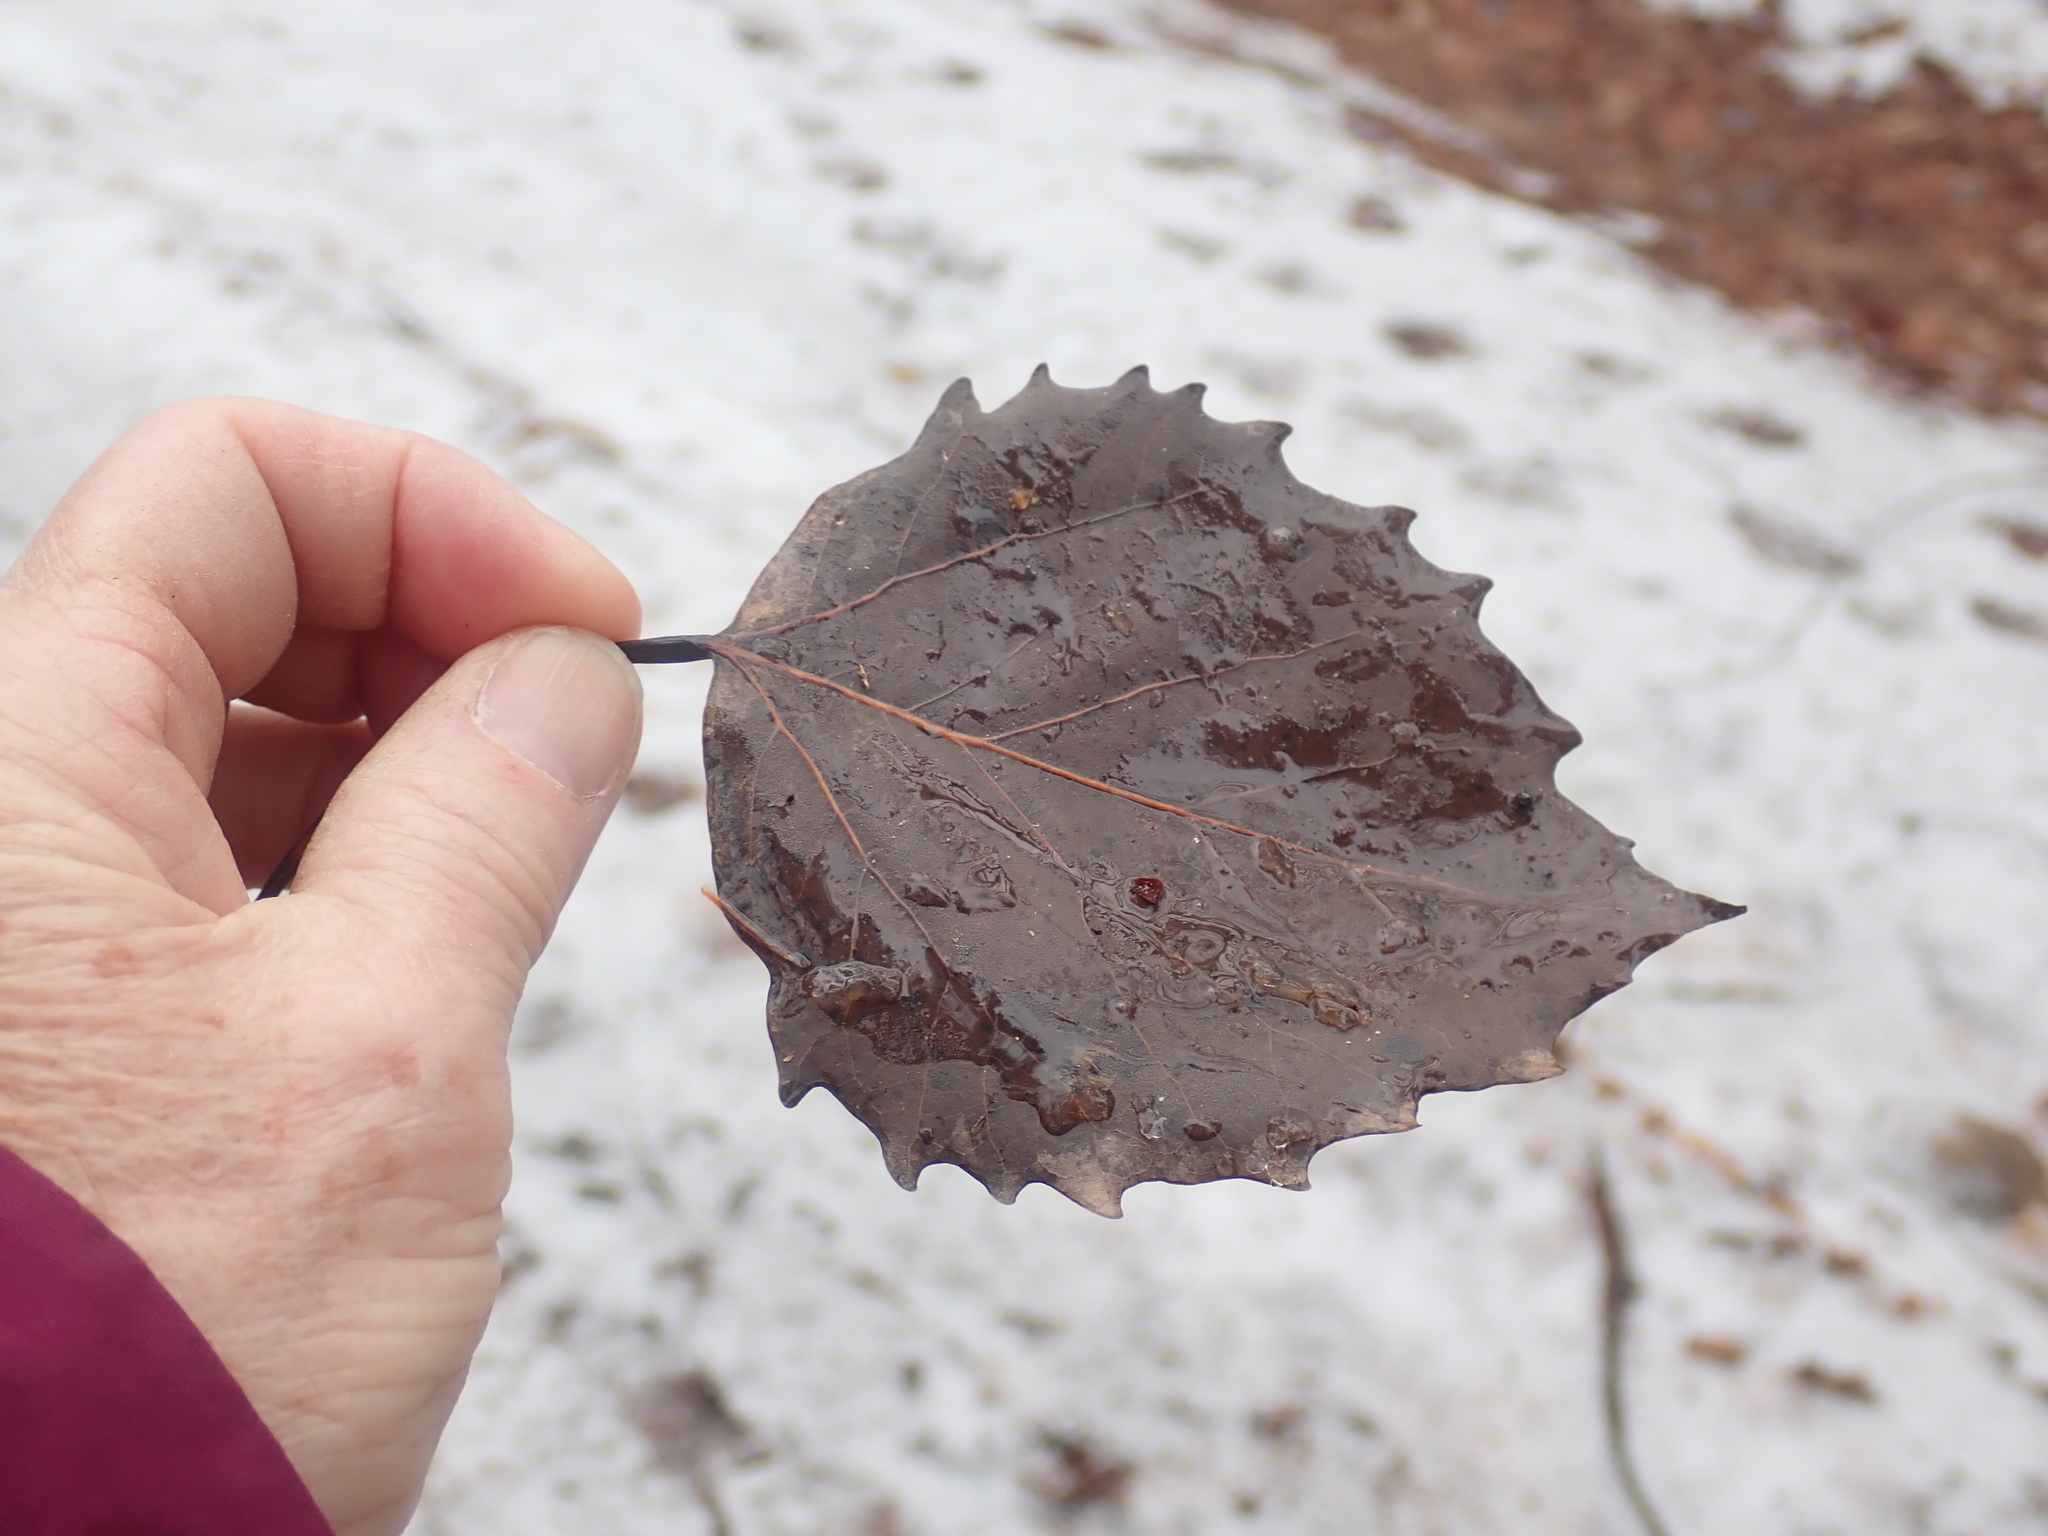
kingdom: Plantae
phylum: Tracheophyta
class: Magnoliopsida
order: Malpighiales
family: Salicaceae
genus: Populus
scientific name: Populus grandidentata
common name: Bigtooth aspen
